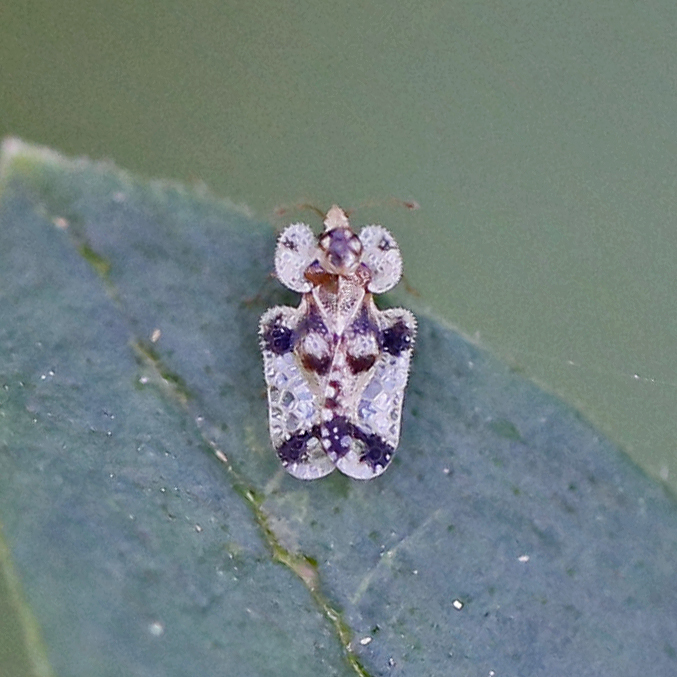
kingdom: Animalia
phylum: Arthropoda
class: Insecta
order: Hemiptera
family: Tingidae
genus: Corythucha
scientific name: Corythucha juglandis
